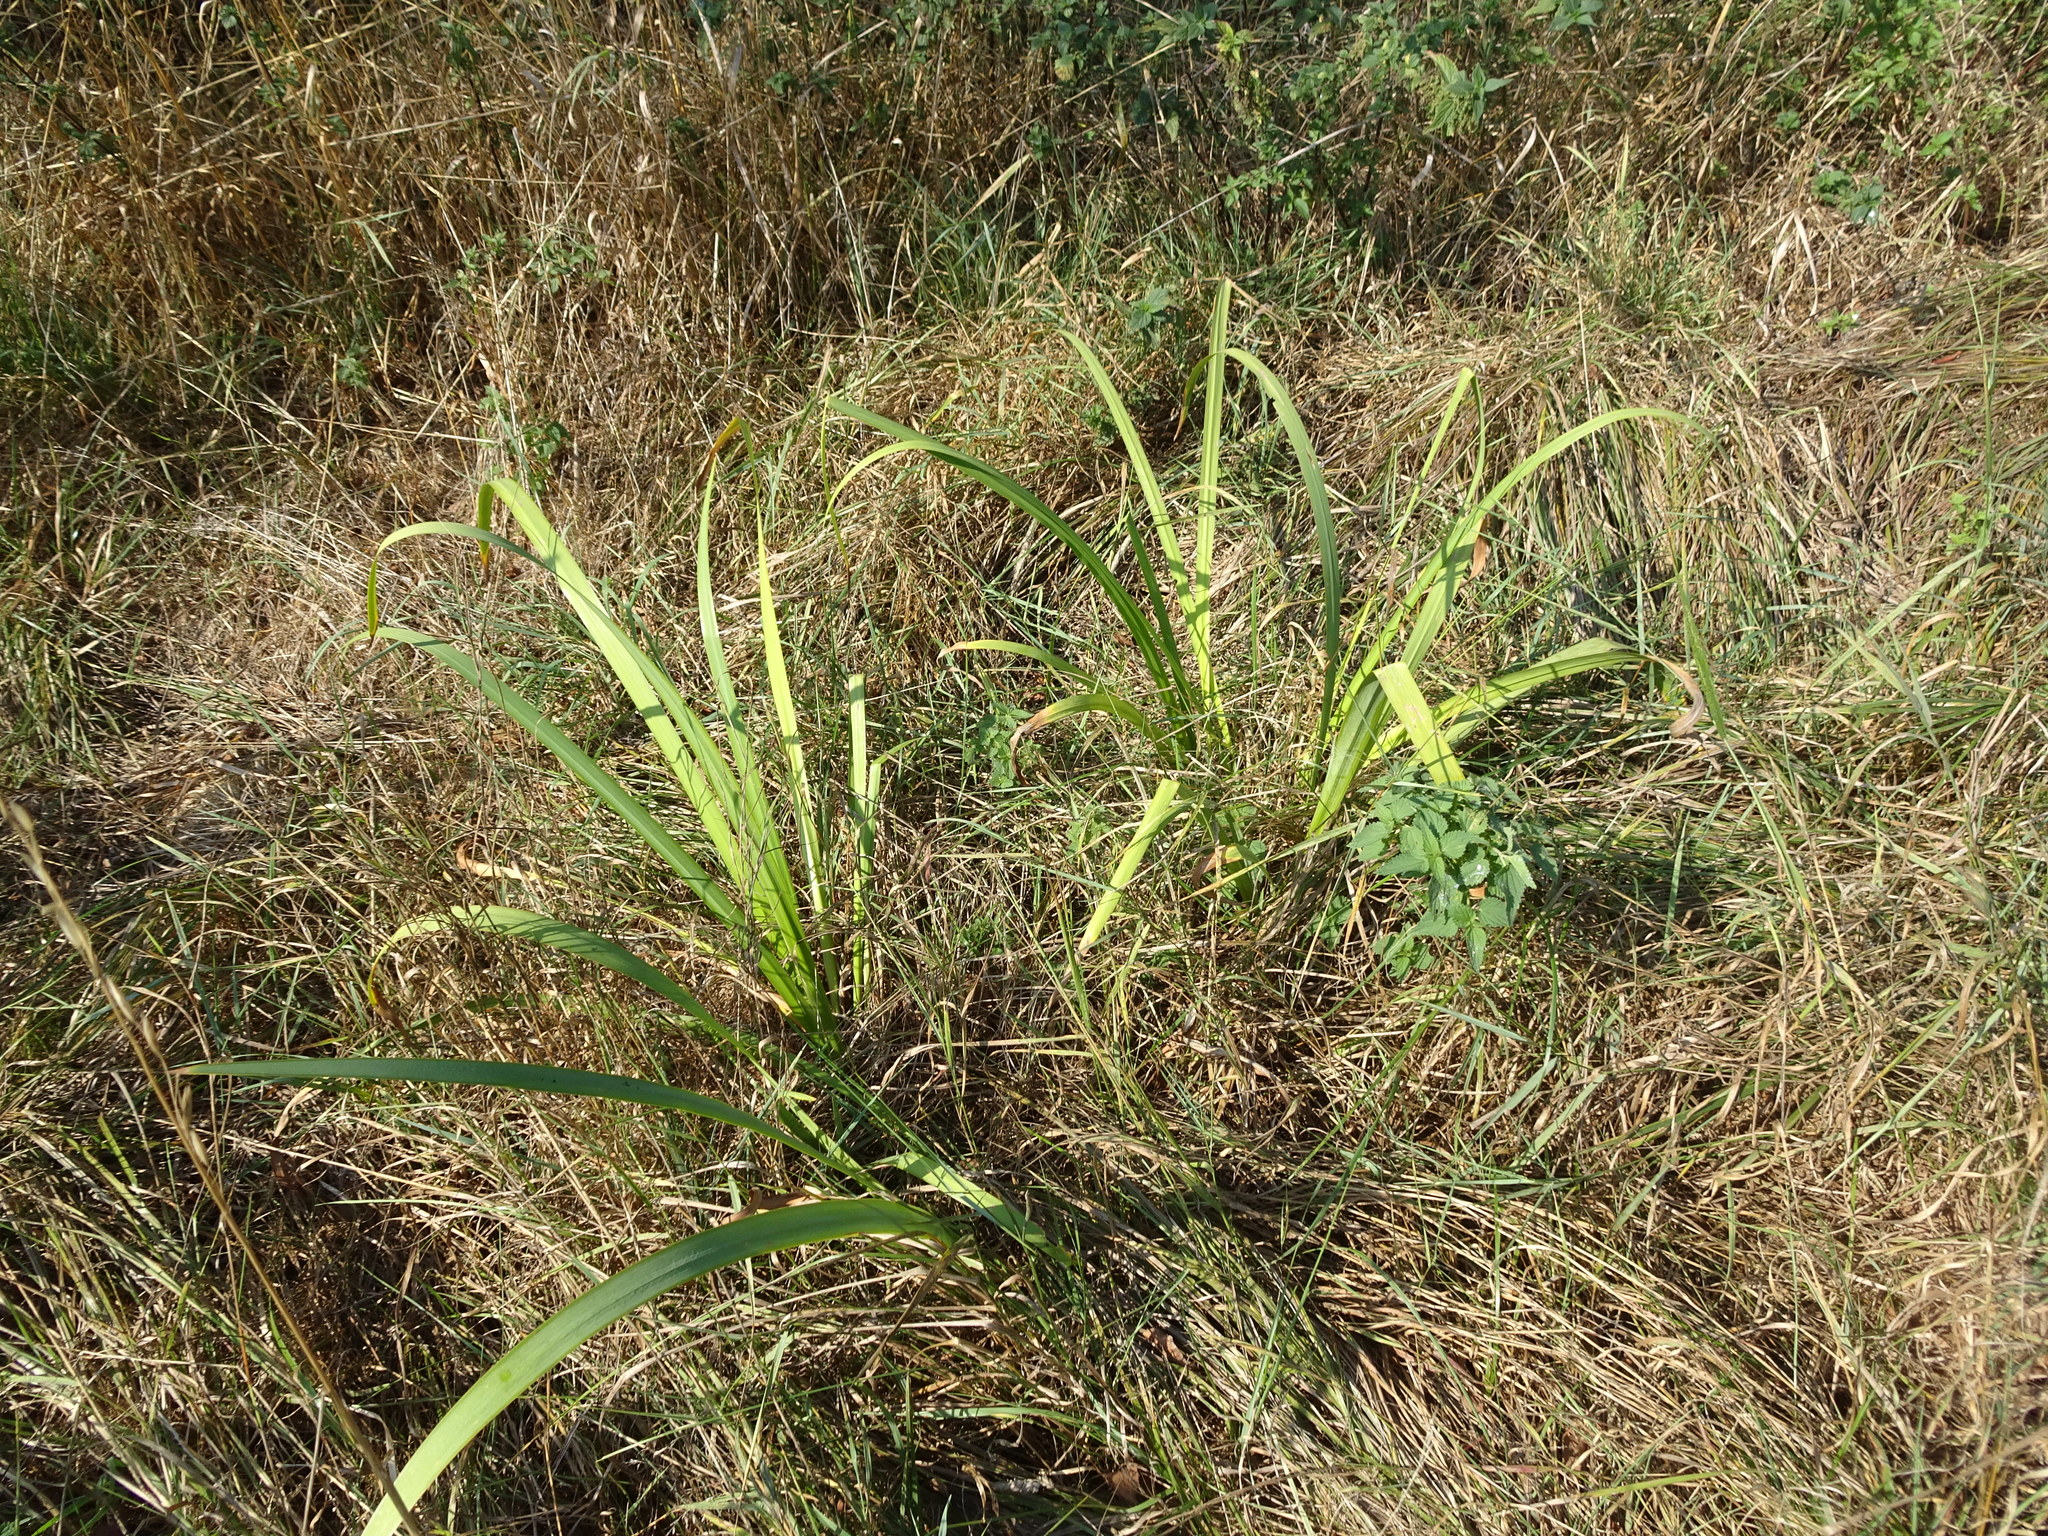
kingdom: Plantae
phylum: Tracheophyta
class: Liliopsida
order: Asparagales
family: Iridaceae
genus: Iris
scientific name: Iris pseudacorus
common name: Yellow flag
